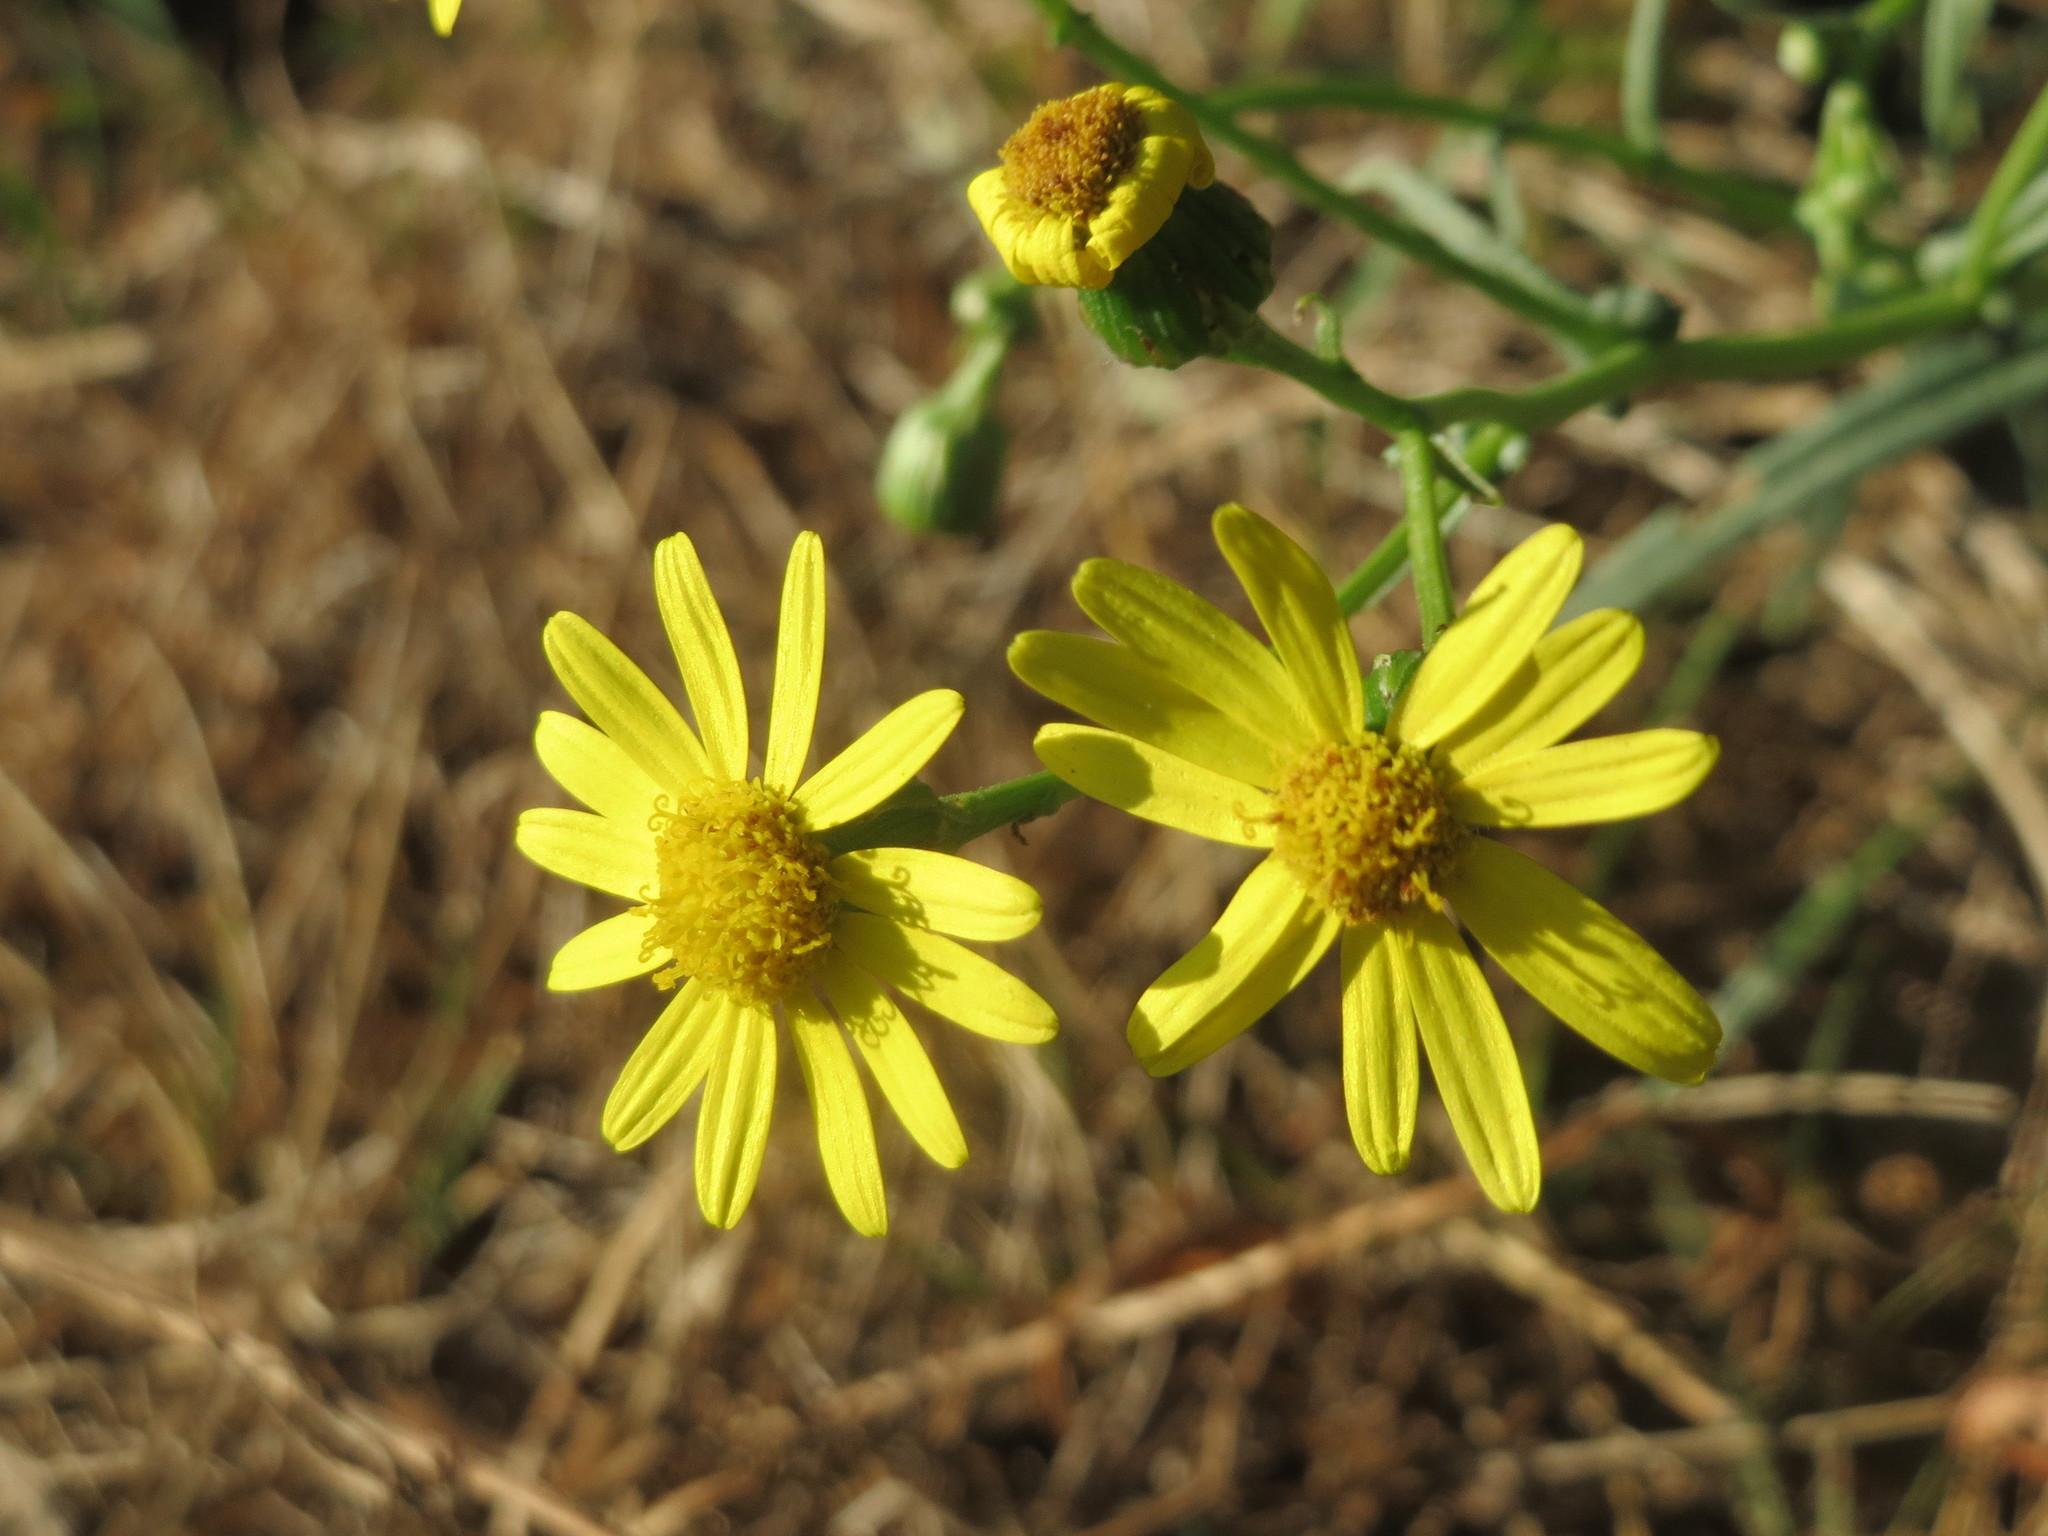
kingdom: Plantae
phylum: Tracheophyta
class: Magnoliopsida
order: Asterales
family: Asteraceae
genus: Senecio
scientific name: Senecio inaequidens
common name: Narrow-leaved ragwort
